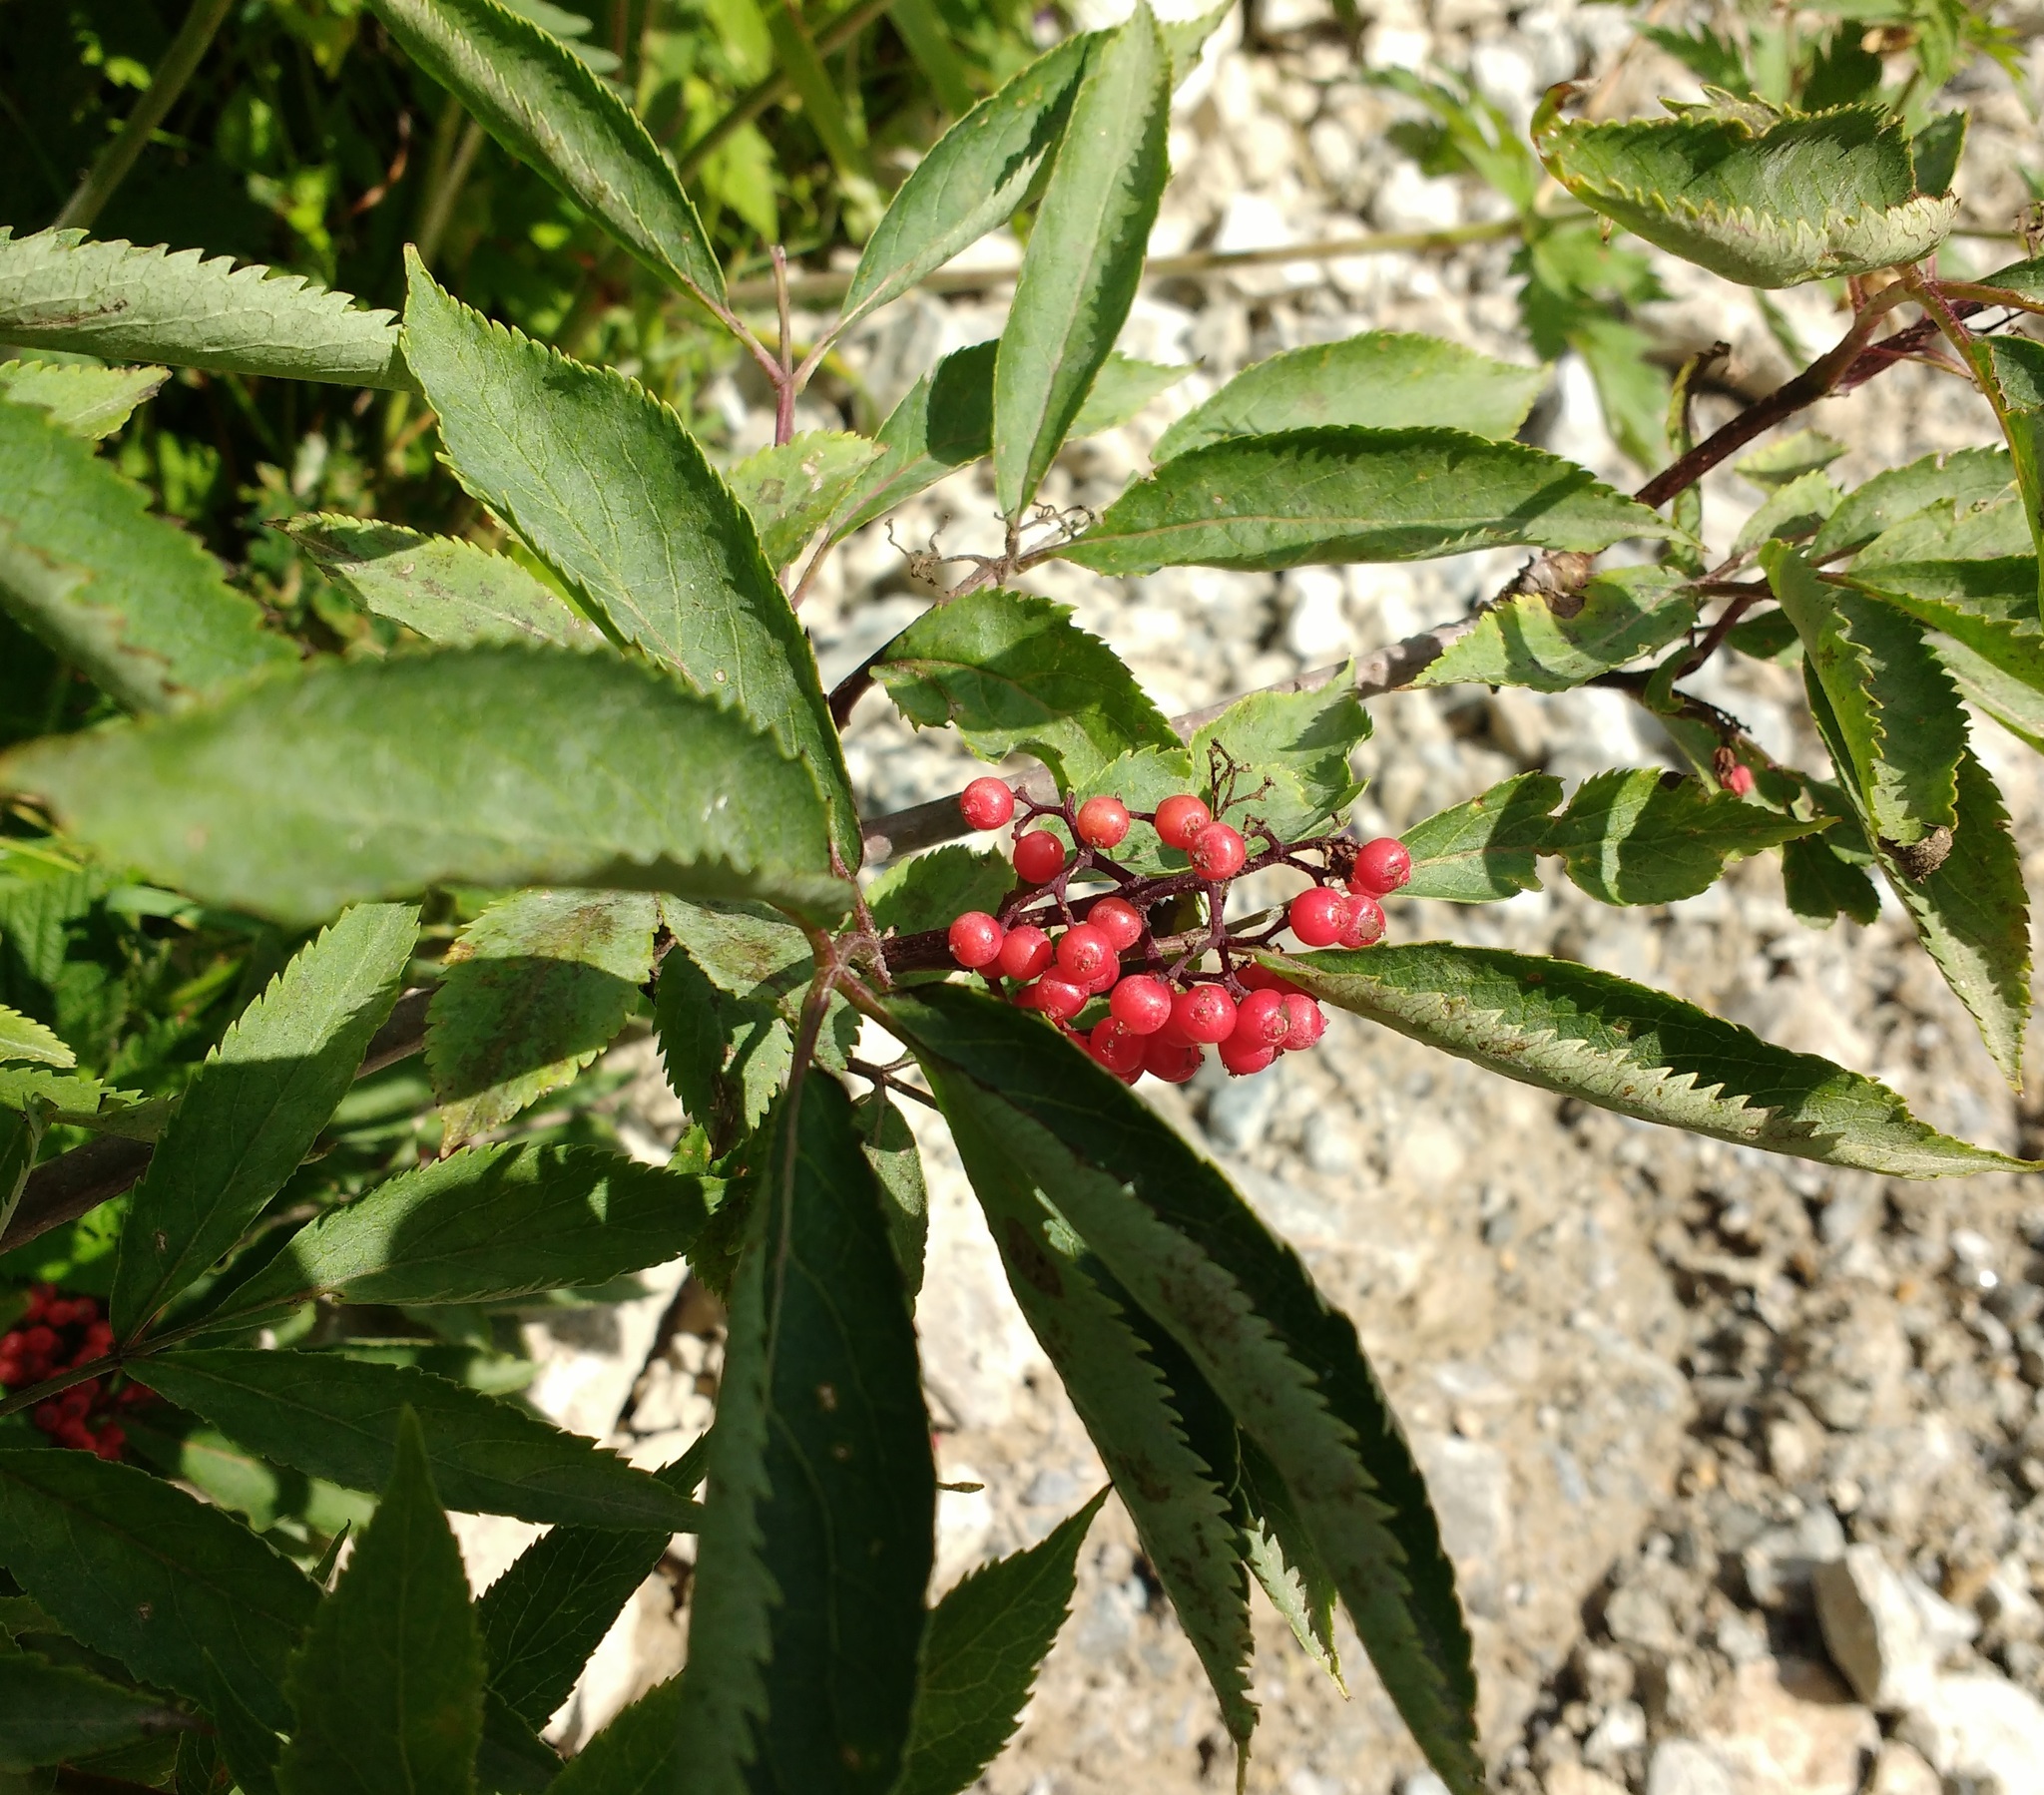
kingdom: Plantae
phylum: Tracheophyta
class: Magnoliopsida
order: Dipsacales
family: Viburnaceae
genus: Sambucus
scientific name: Sambucus racemosa
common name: Red-berried elder
